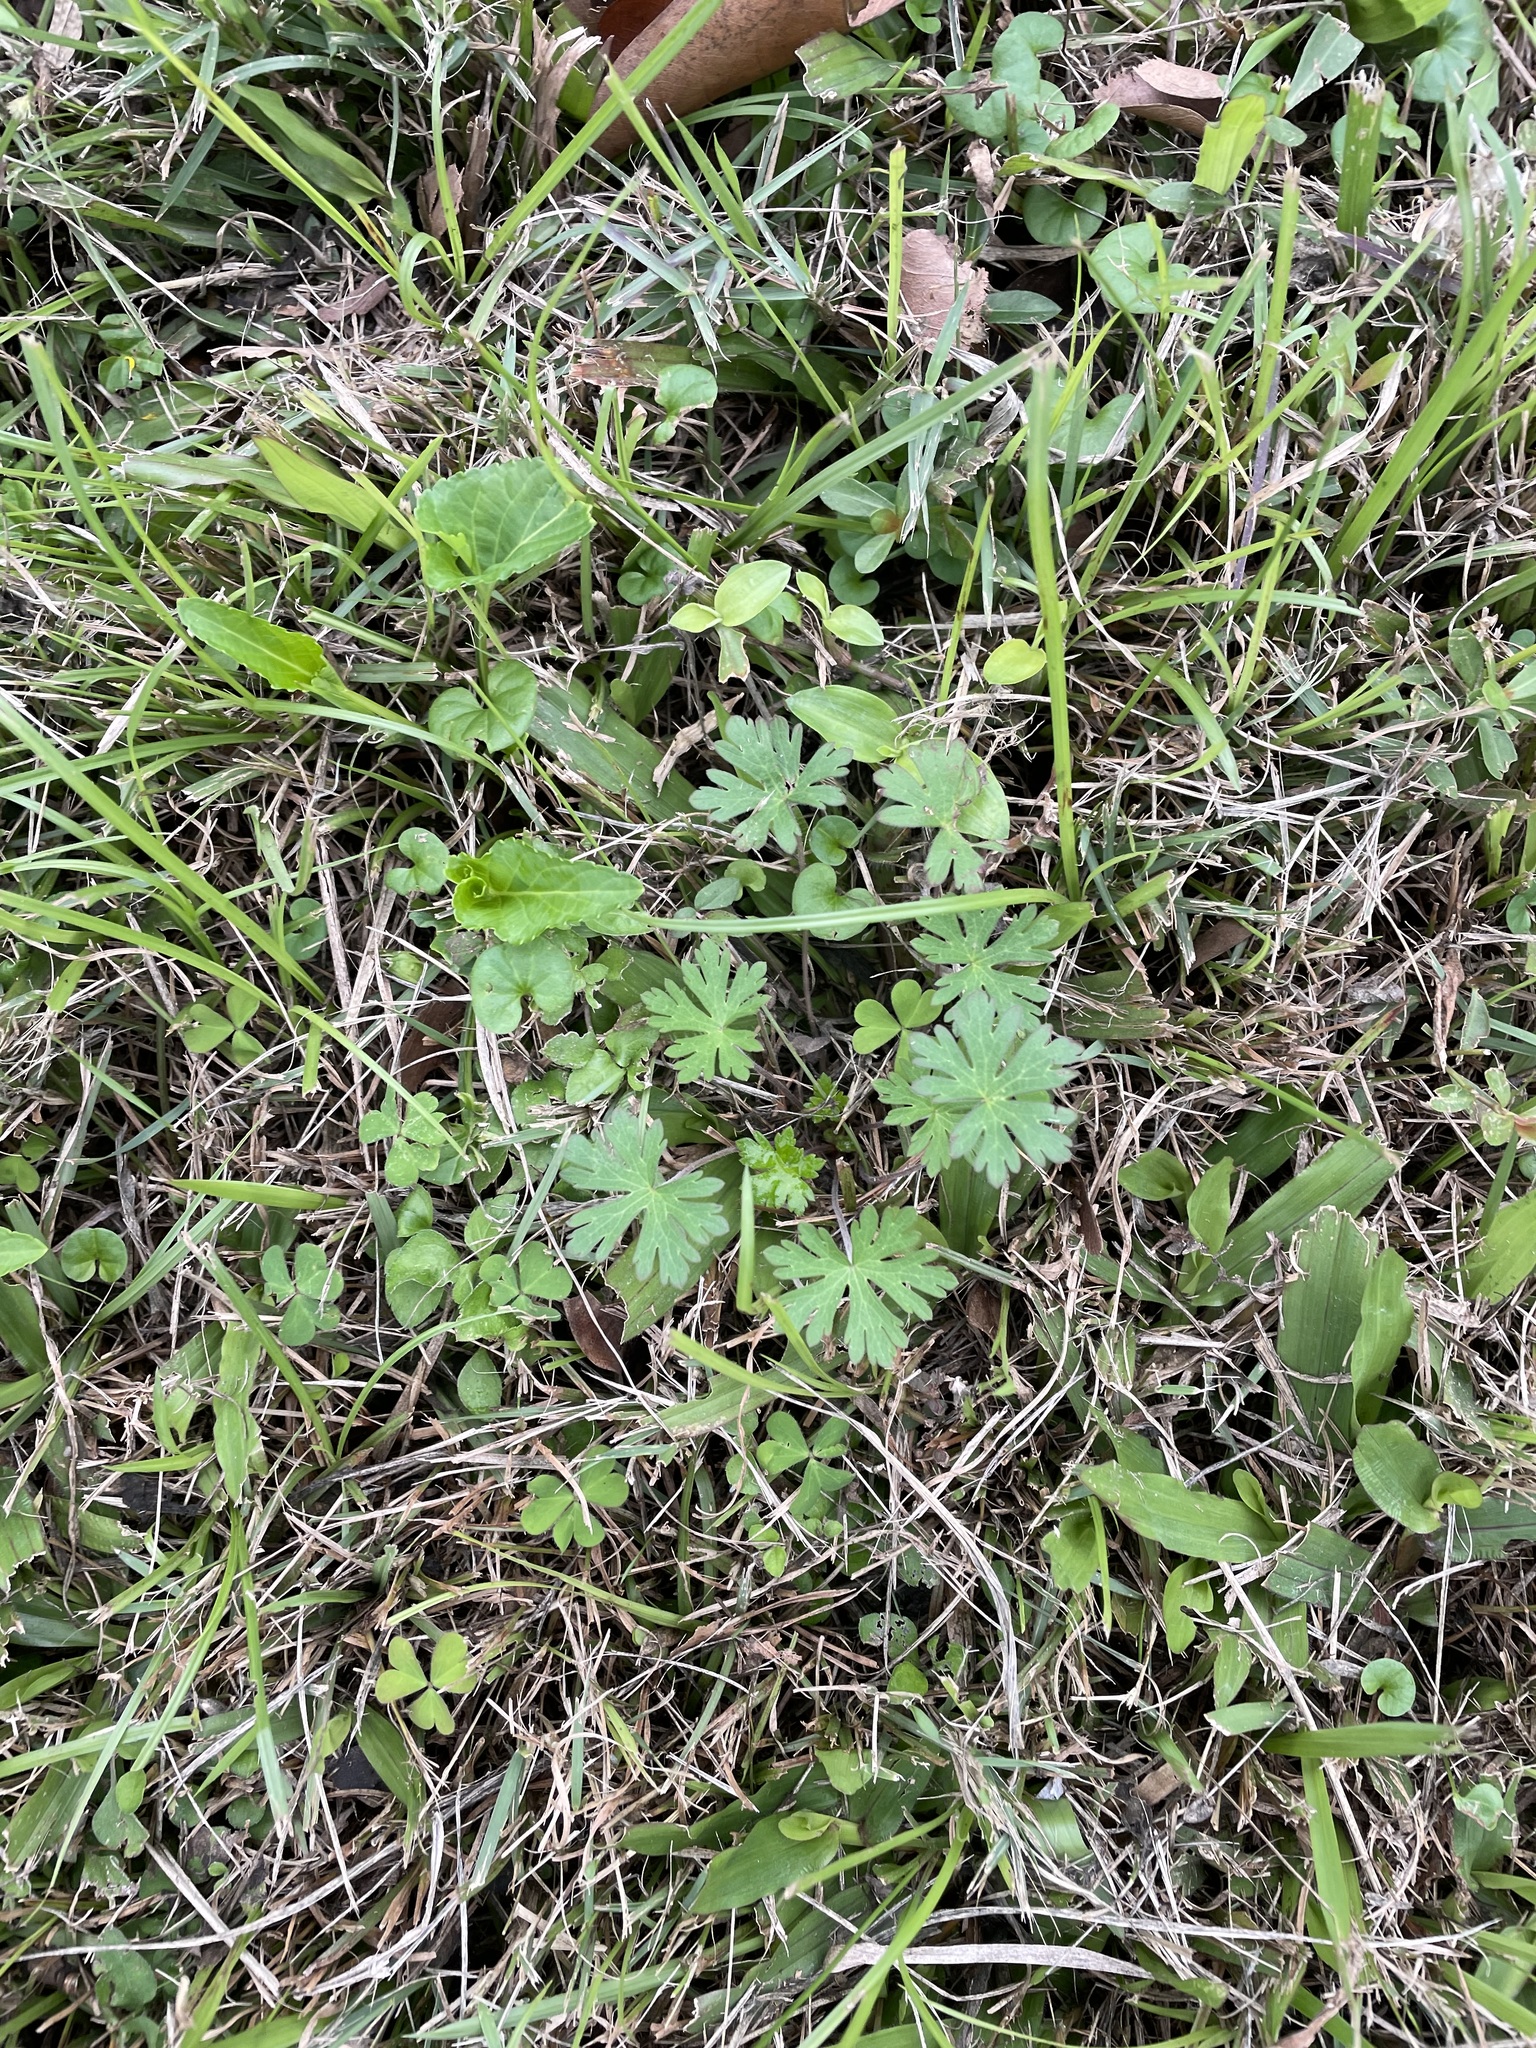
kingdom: Plantae
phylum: Tracheophyta
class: Magnoliopsida
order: Geraniales
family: Geraniaceae
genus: Geranium
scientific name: Geranium carolinianum
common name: Carolina crane's-bill
